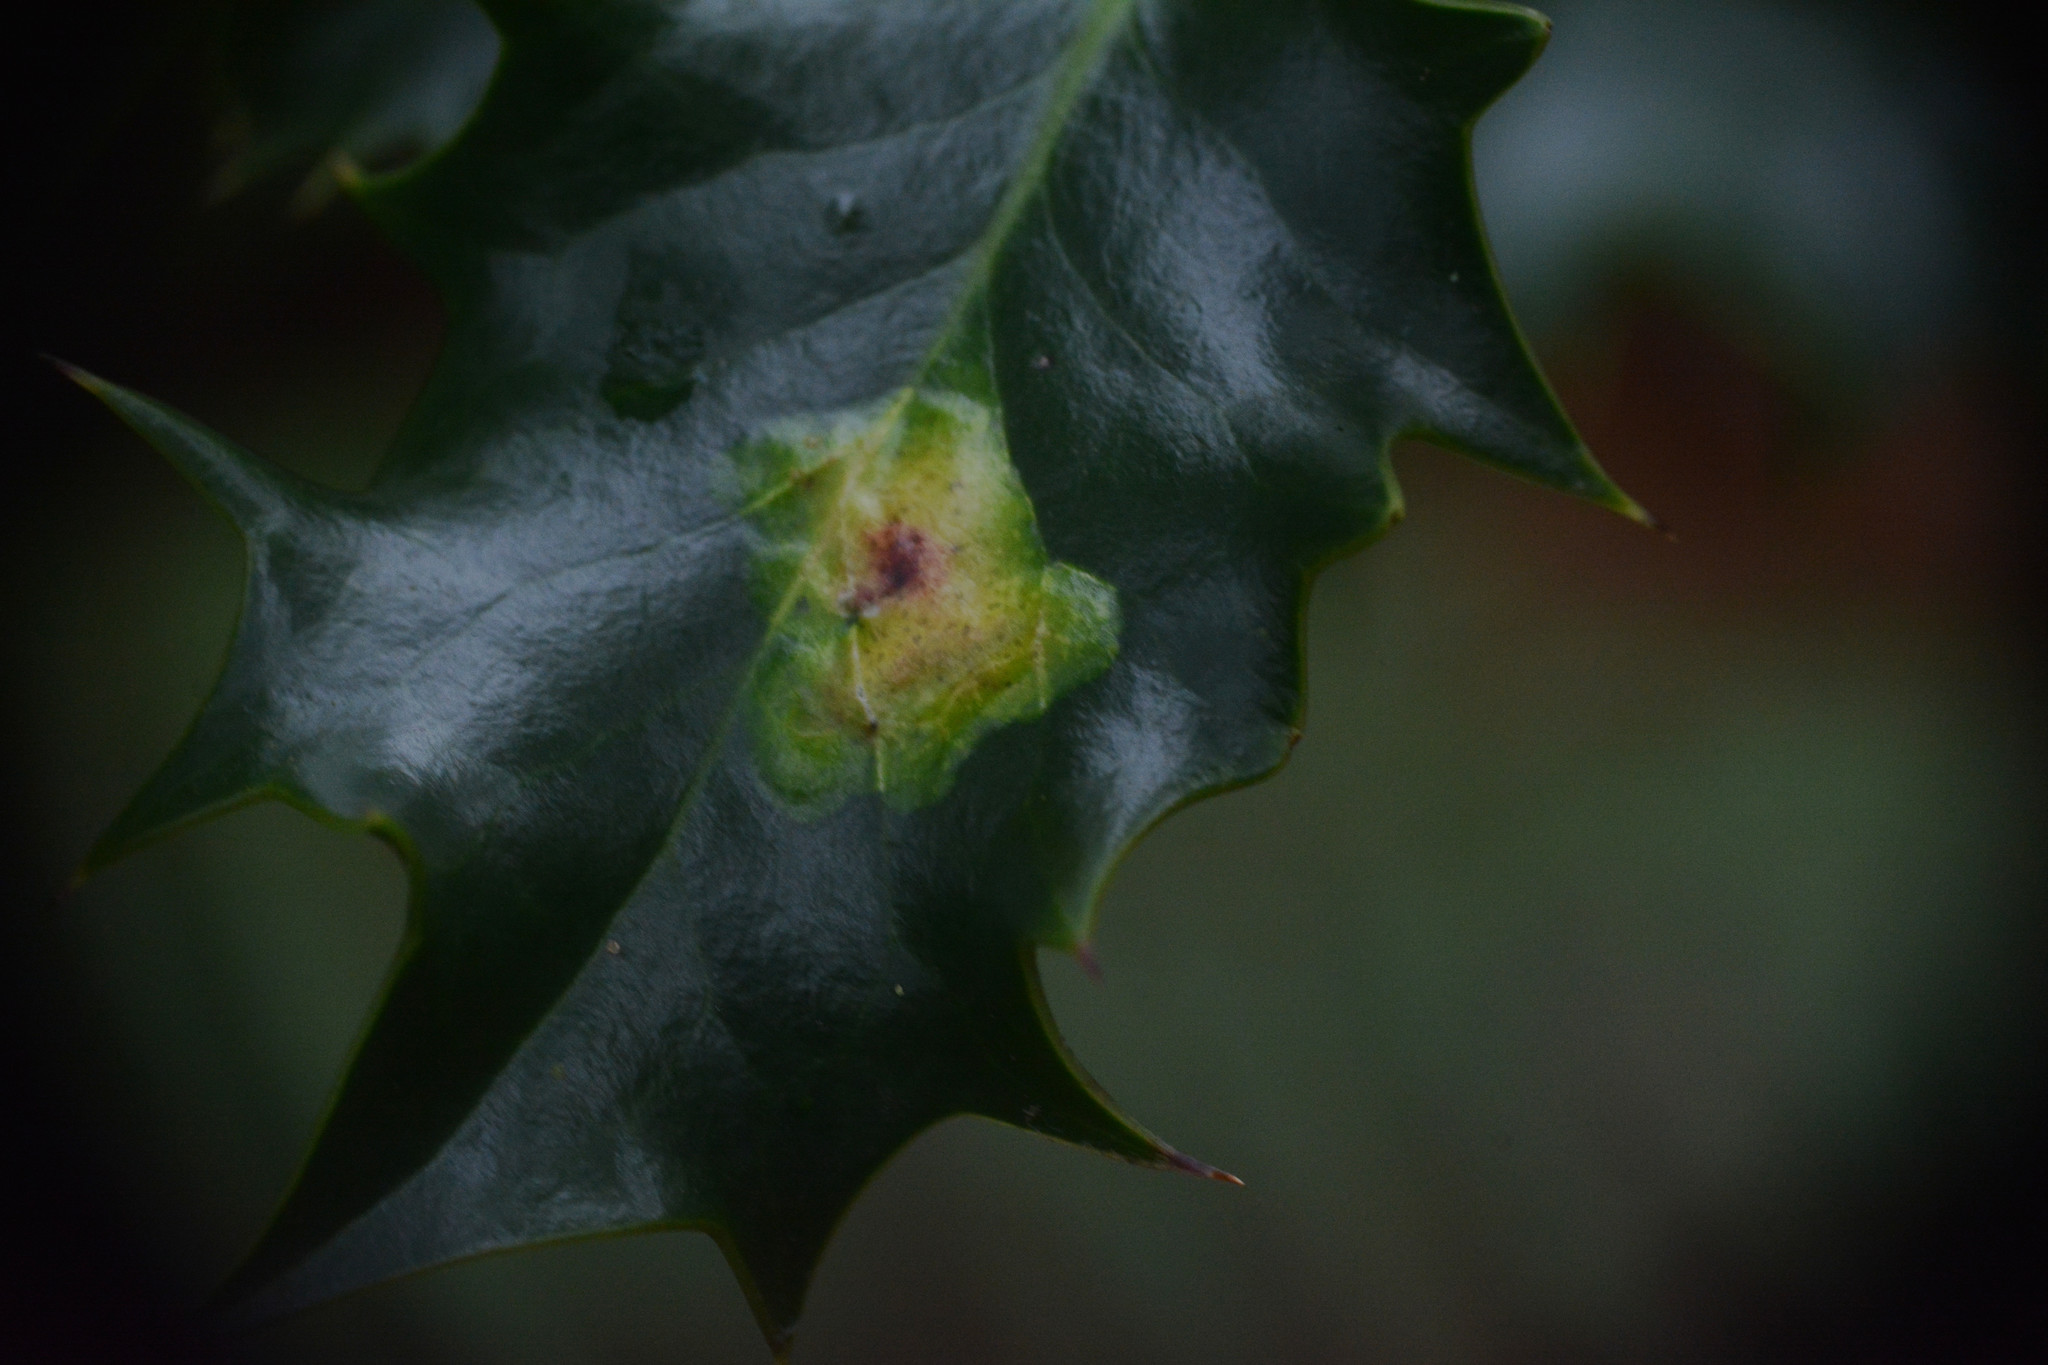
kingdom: Animalia
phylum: Arthropoda
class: Insecta
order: Diptera
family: Agromyzidae
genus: Phytomyza
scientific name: Phytomyza ilicis
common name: Holly leafminer
